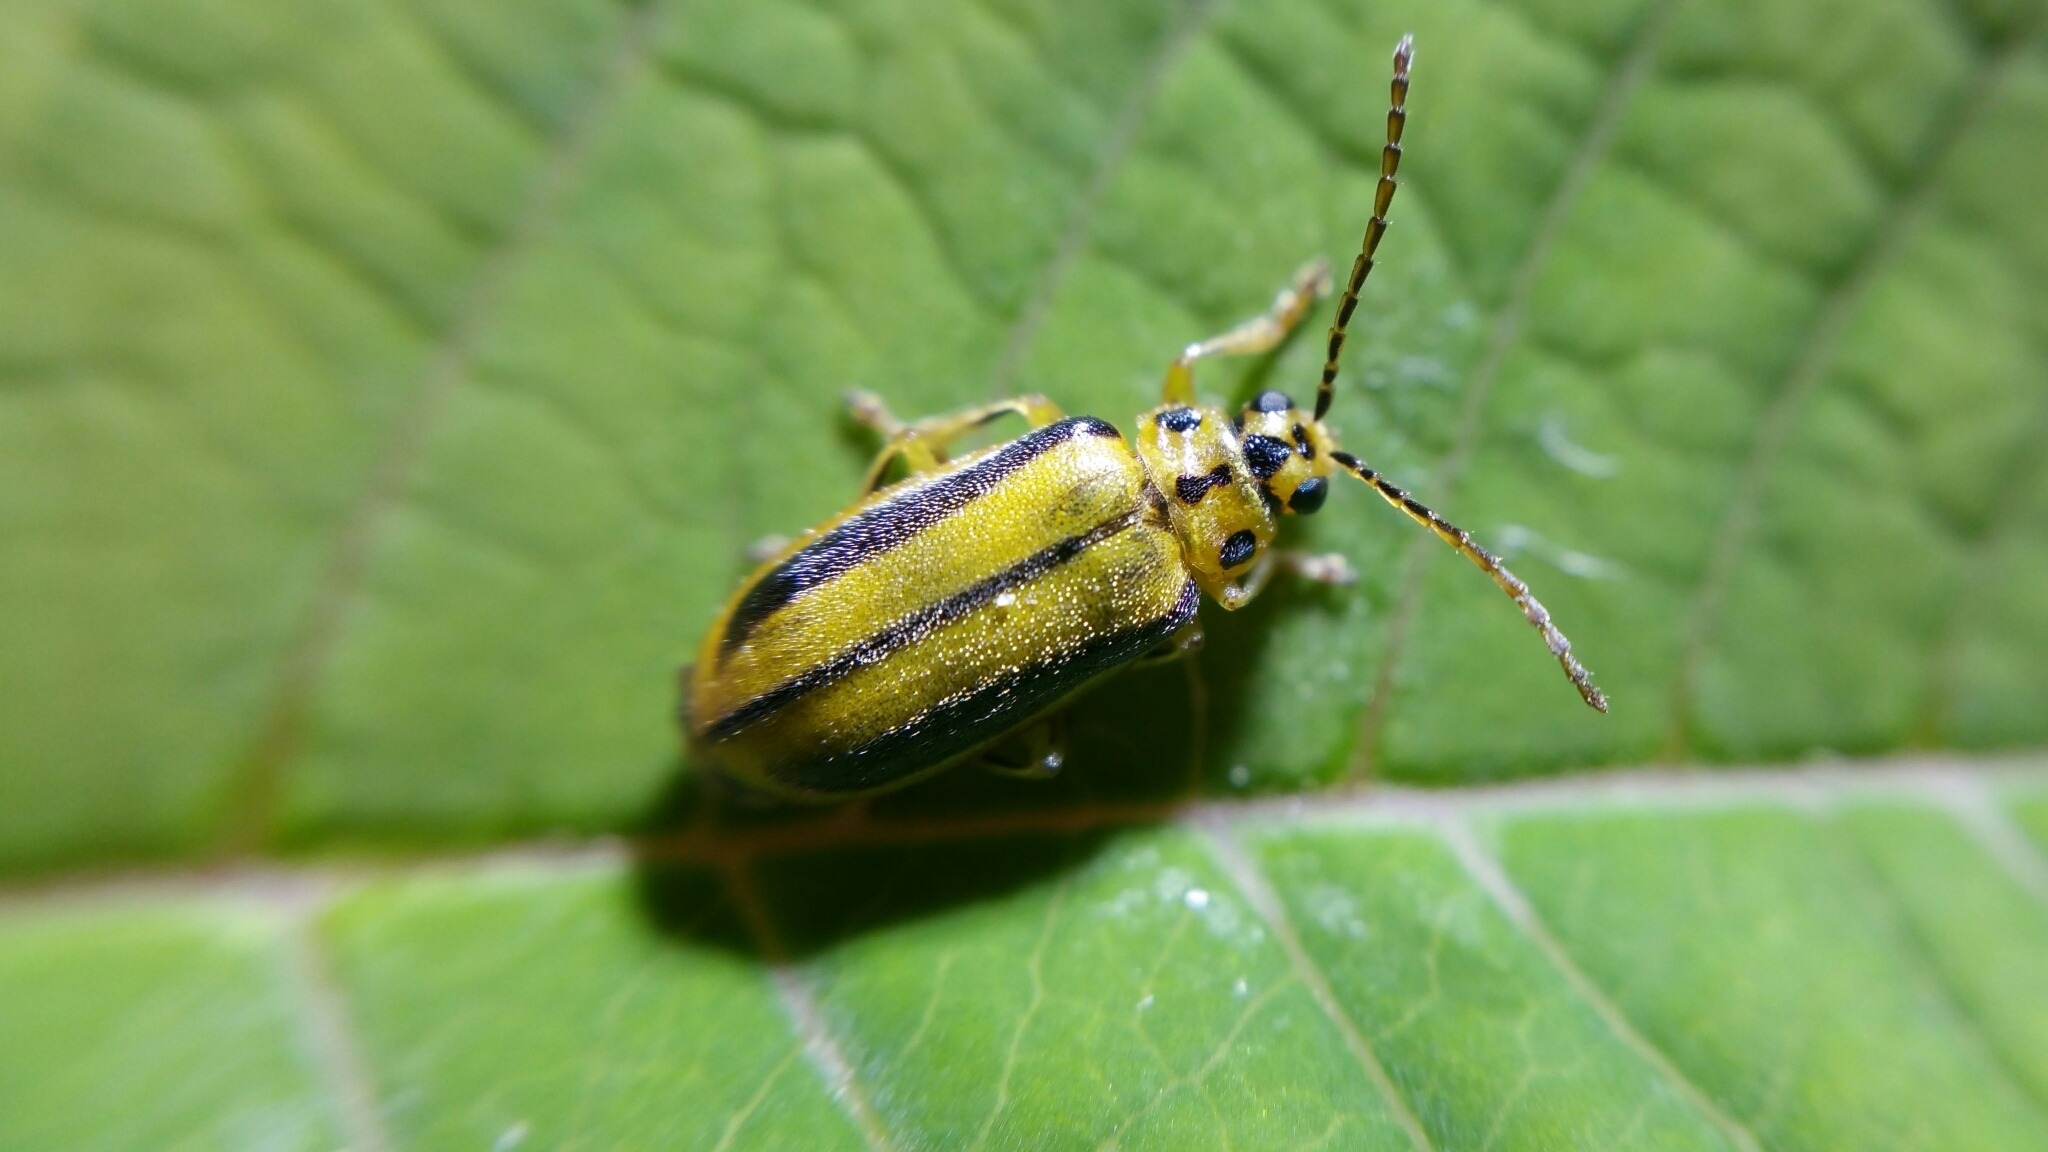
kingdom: Animalia
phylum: Arthropoda
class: Insecta
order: Coleoptera
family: Chrysomelidae
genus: Xanthogaleruca
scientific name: Xanthogaleruca luteola
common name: Elm leaf beetle
